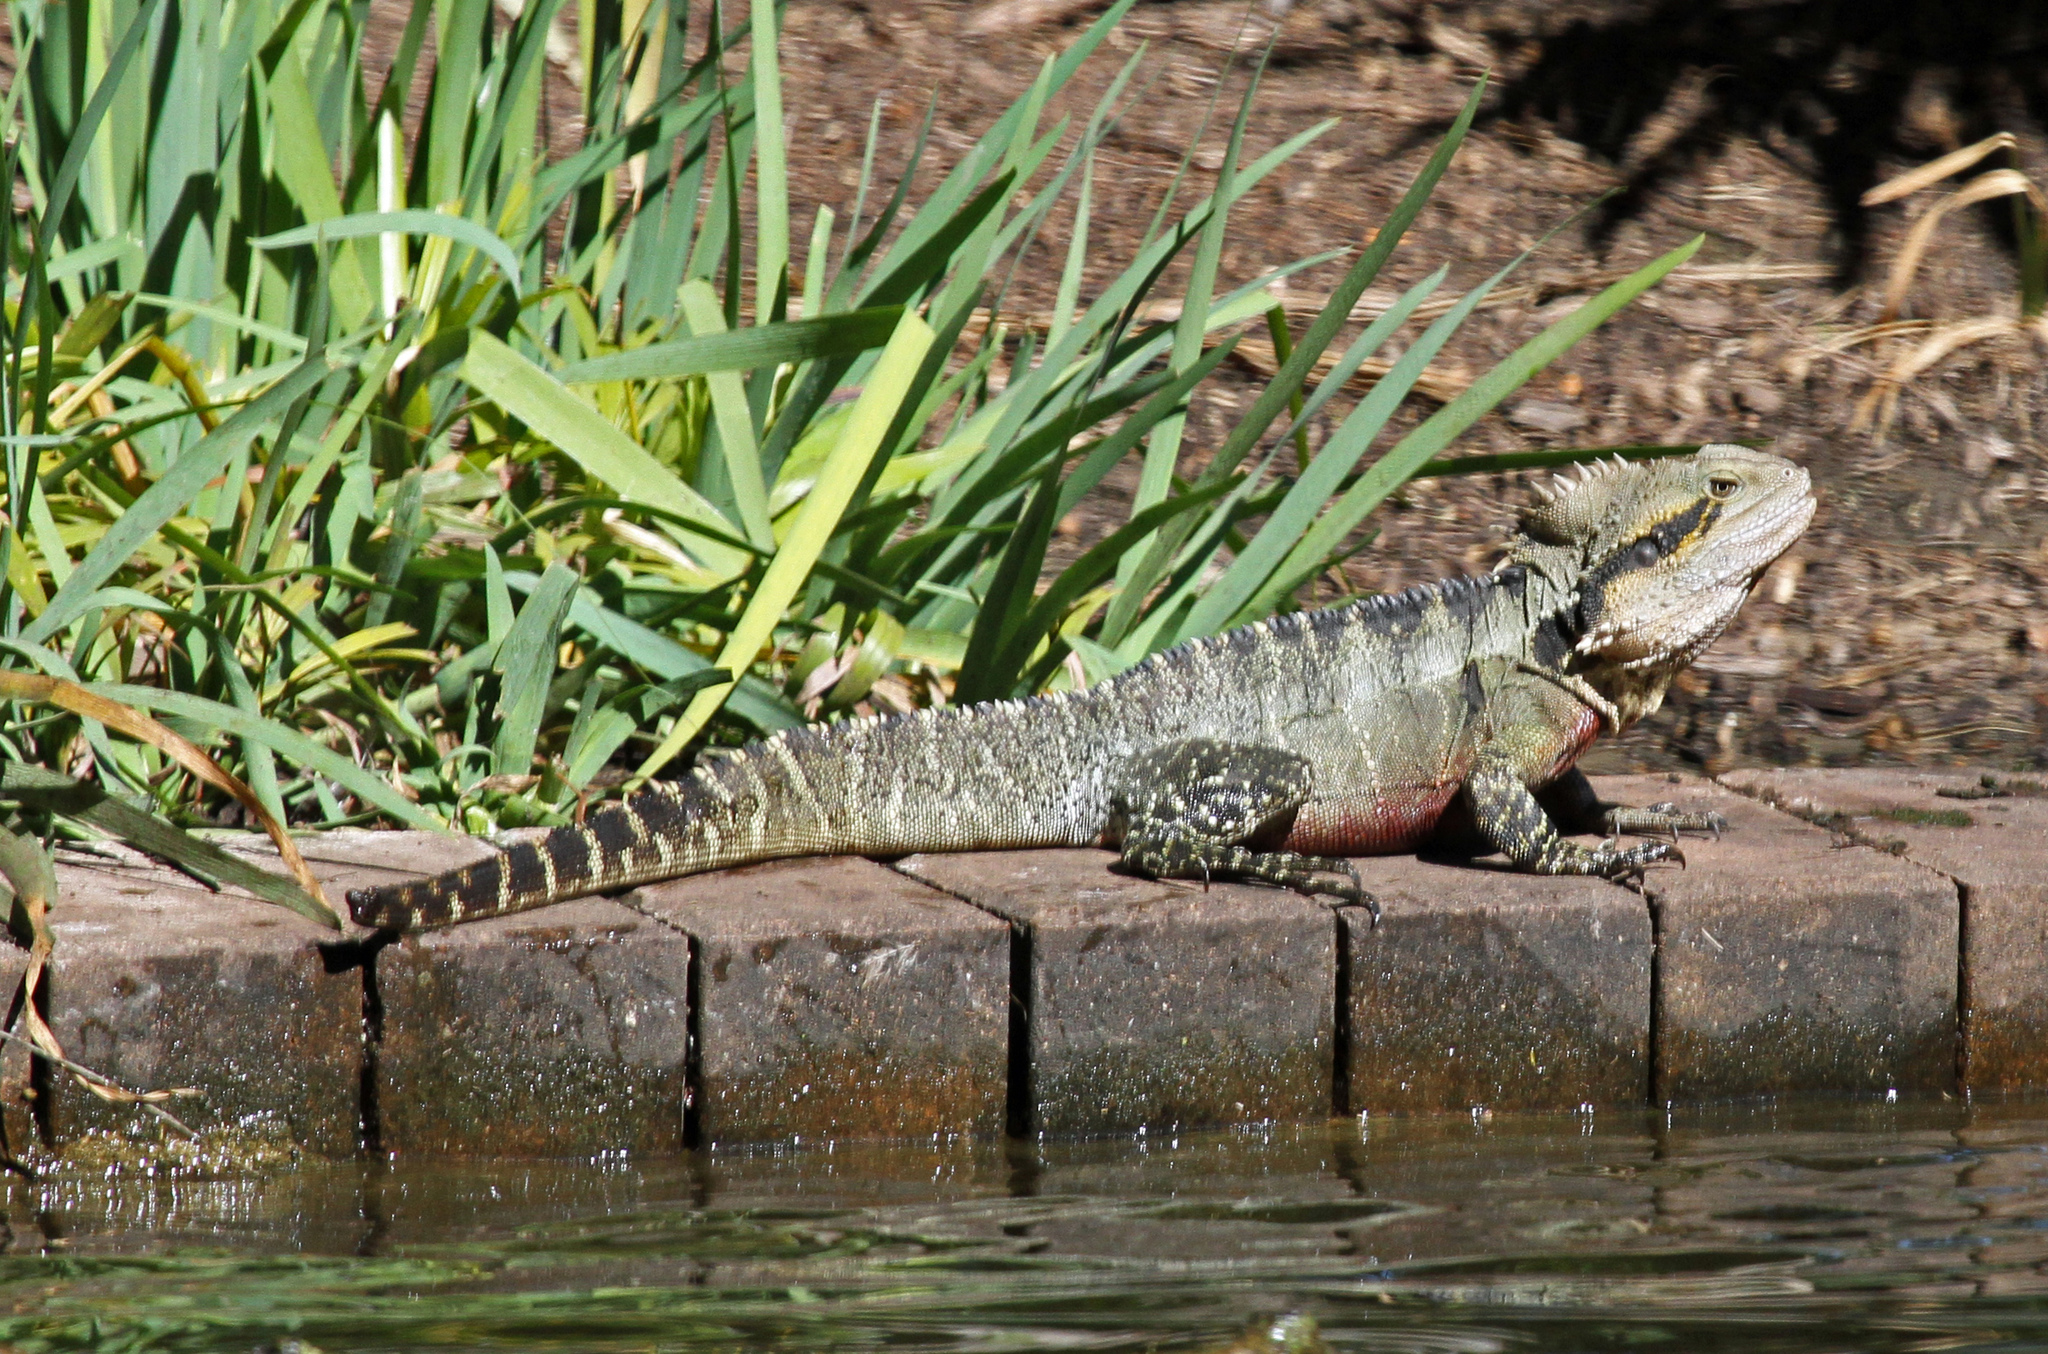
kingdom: Animalia
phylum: Chordata
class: Squamata
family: Agamidae
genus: Intellagama
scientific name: Intellagama lesueurii
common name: Eastern water dragon
